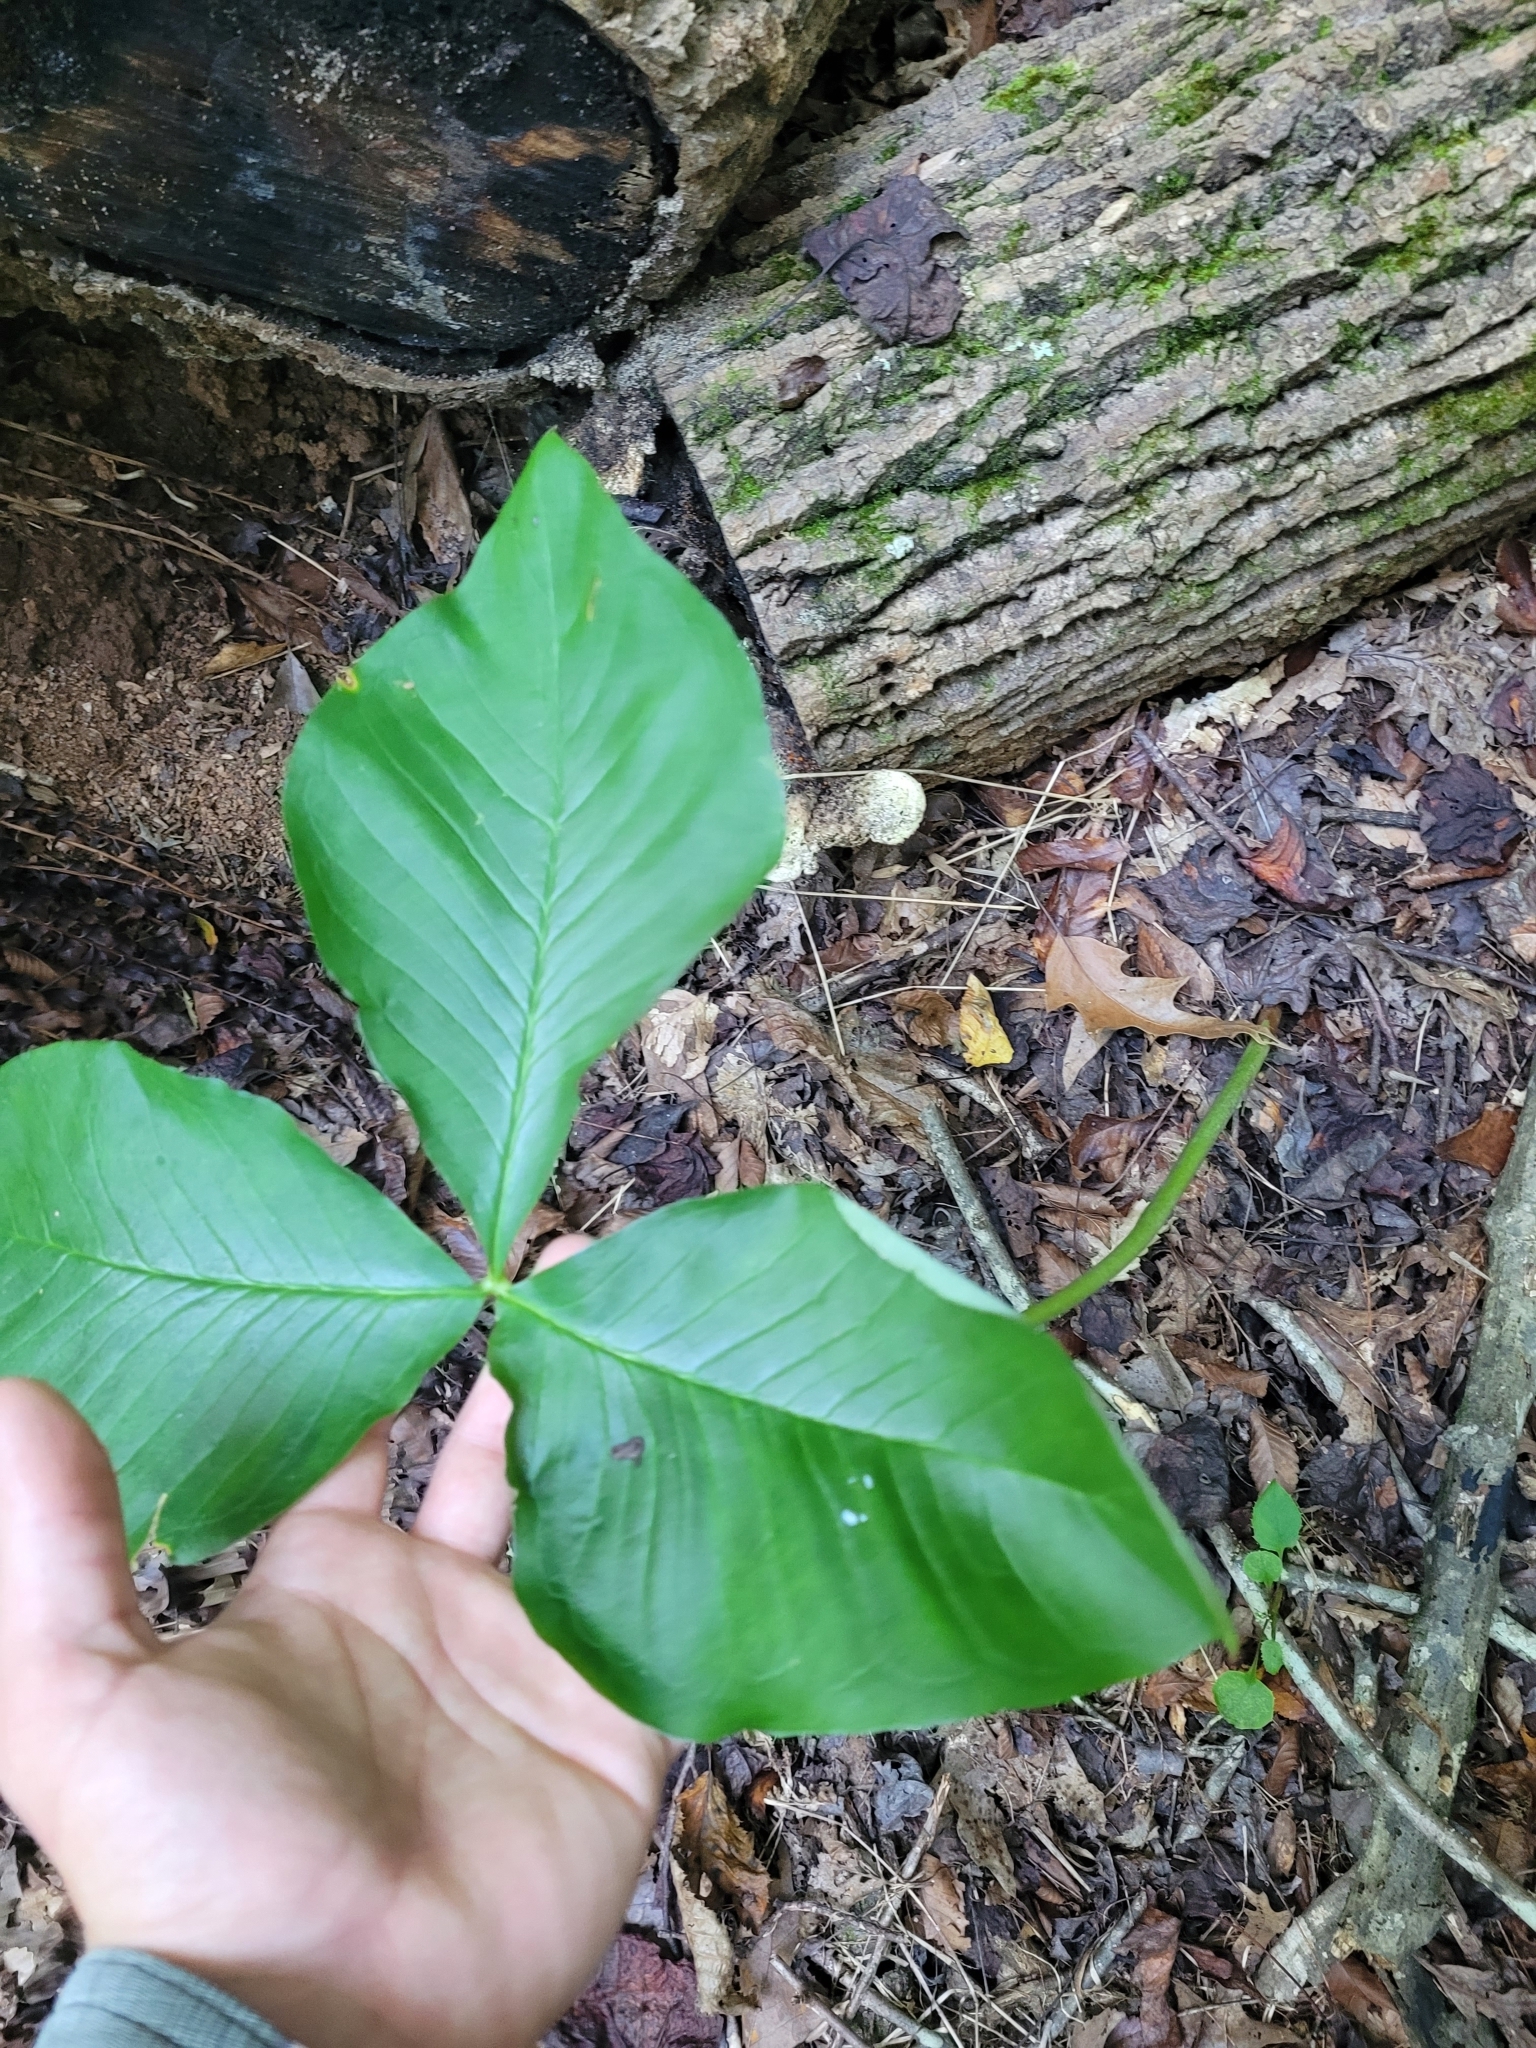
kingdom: Plantae
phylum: Tracheophyta
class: Liliopsida
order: Alismatales
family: Araceae
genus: Arisaema
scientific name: Arisaema triphyllum
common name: Jack-in-the-pulpit
